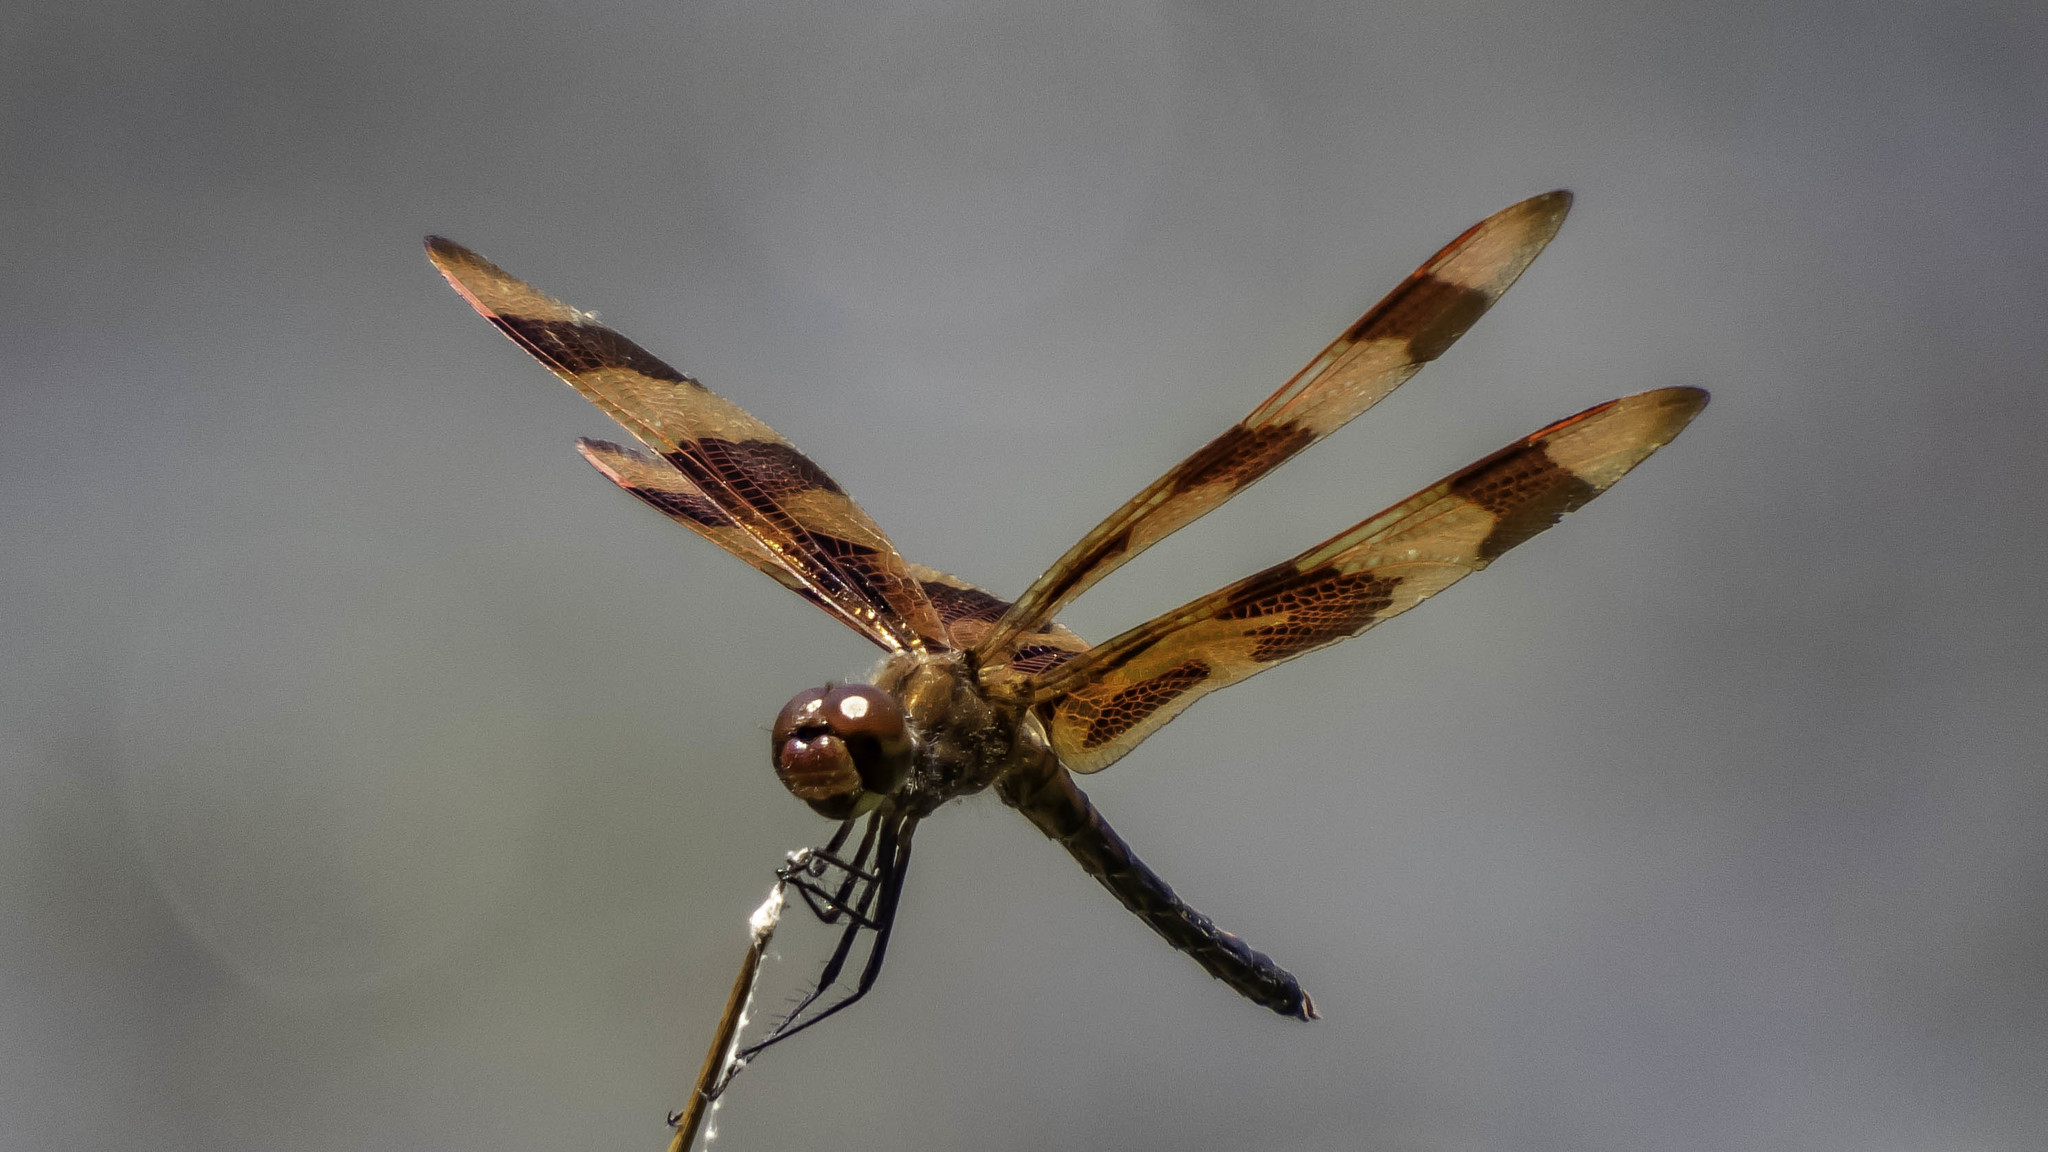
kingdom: Animalia
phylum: Arthropoda
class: Insecta
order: Odonata
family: Libellulidae
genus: Celithemis
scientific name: Celithemis eponina
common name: Halloween pennant
